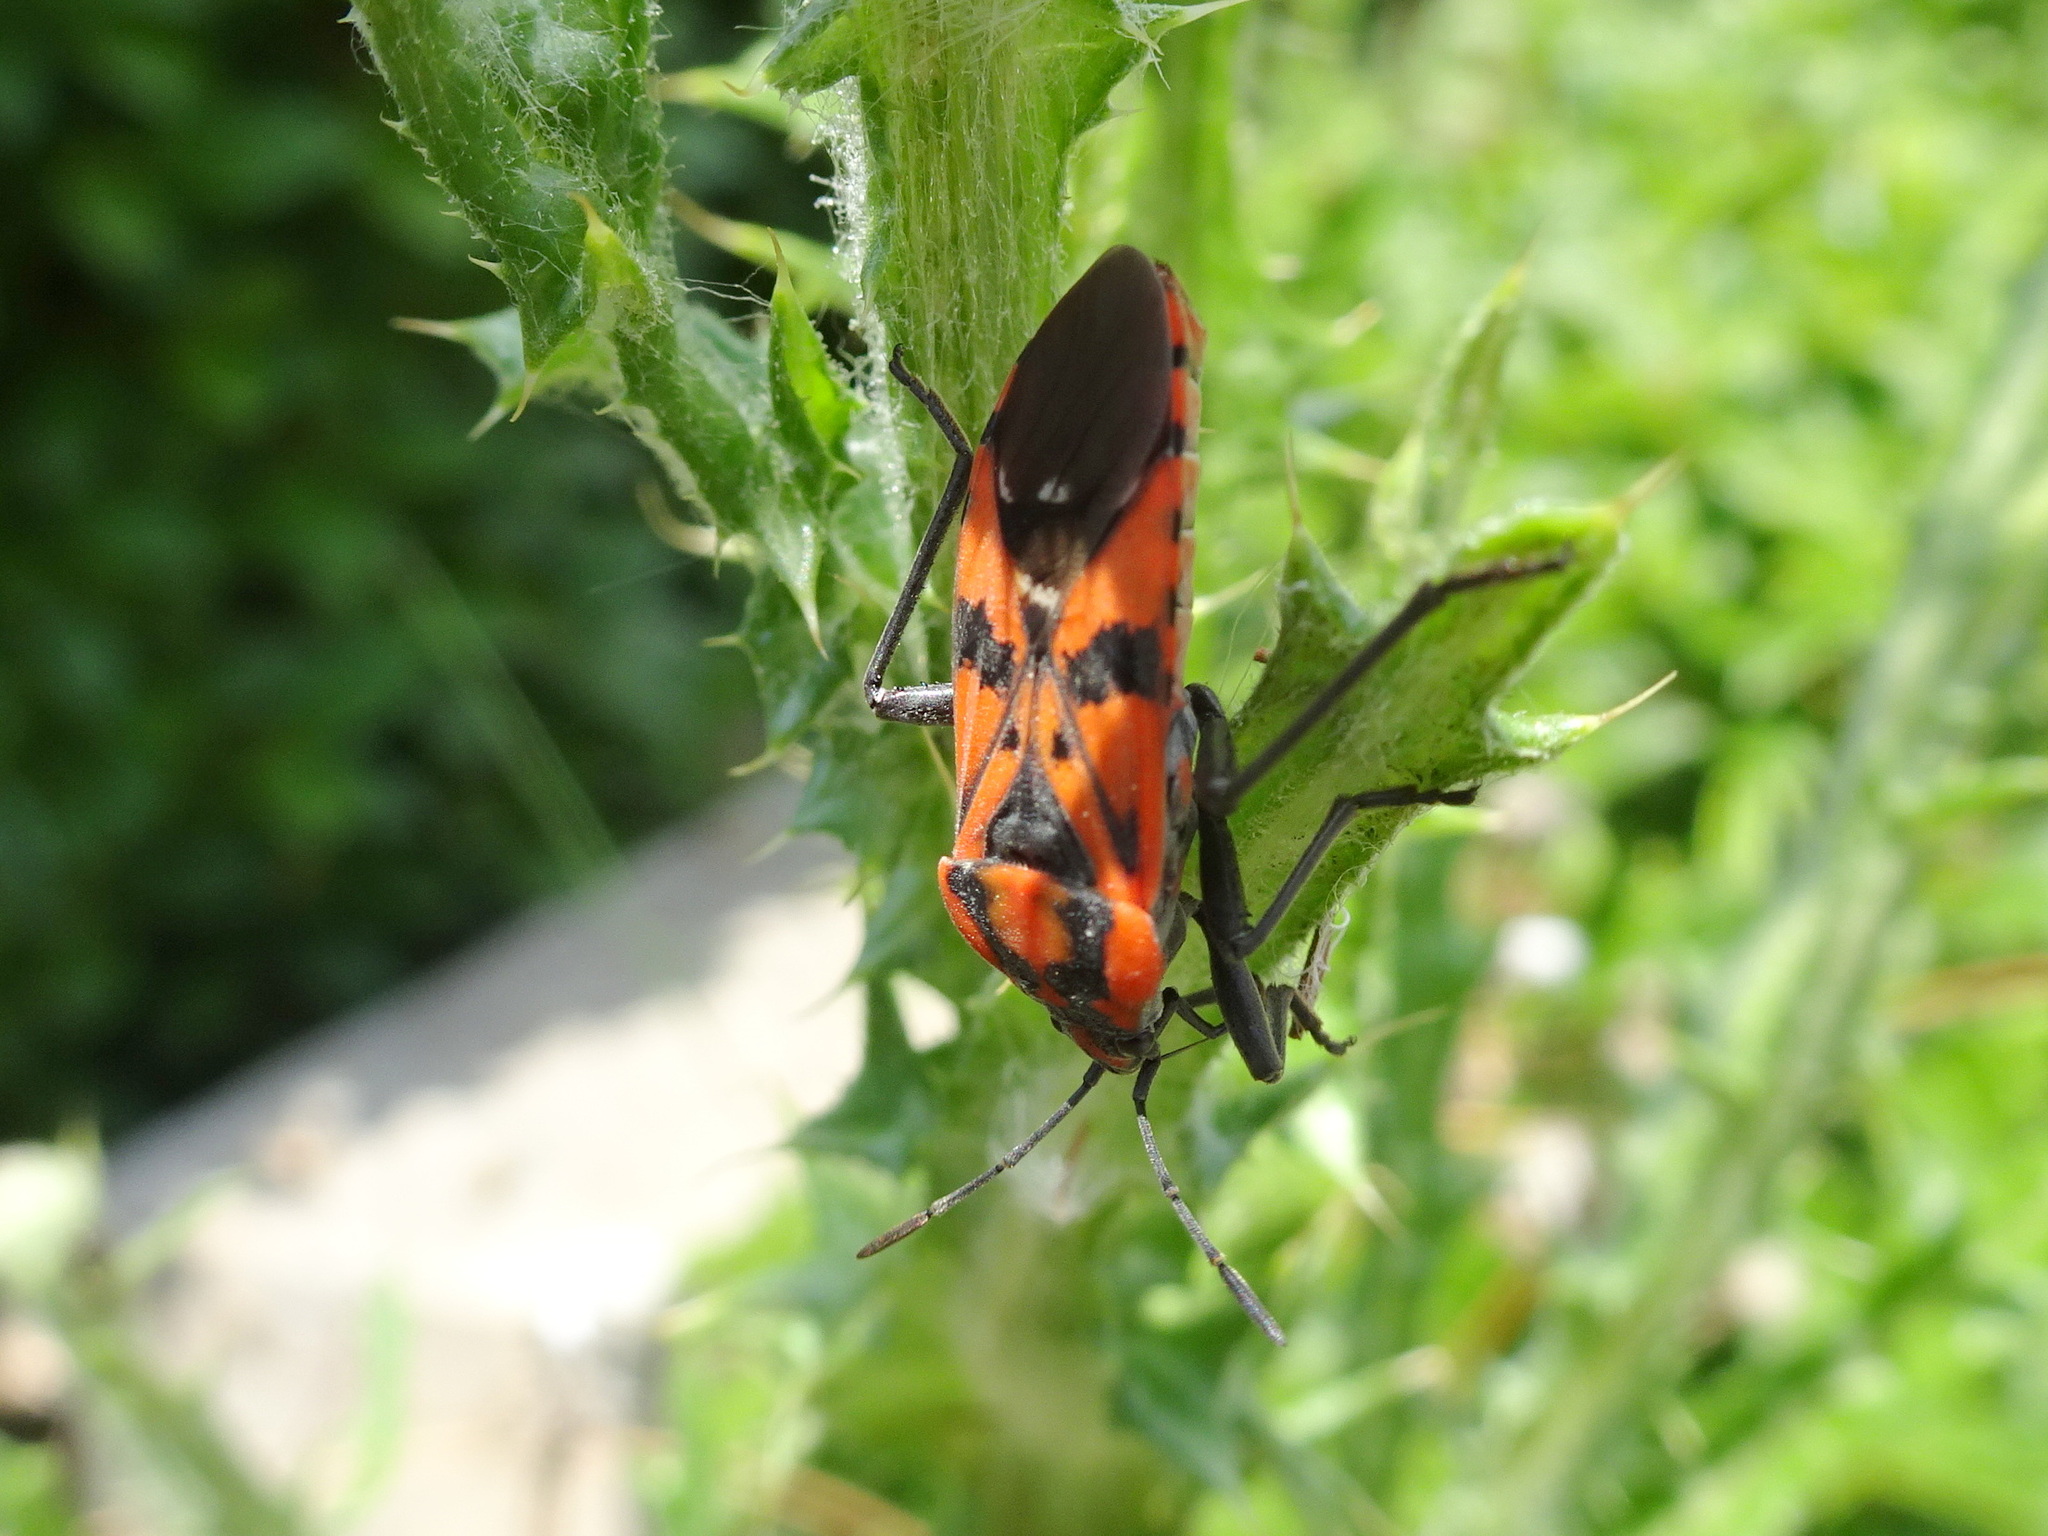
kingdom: Animalia
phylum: Arthropoda
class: Insecta
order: Hemiptera
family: Lygaeidae
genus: Spilostethus
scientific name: Spilostethus pandurus
